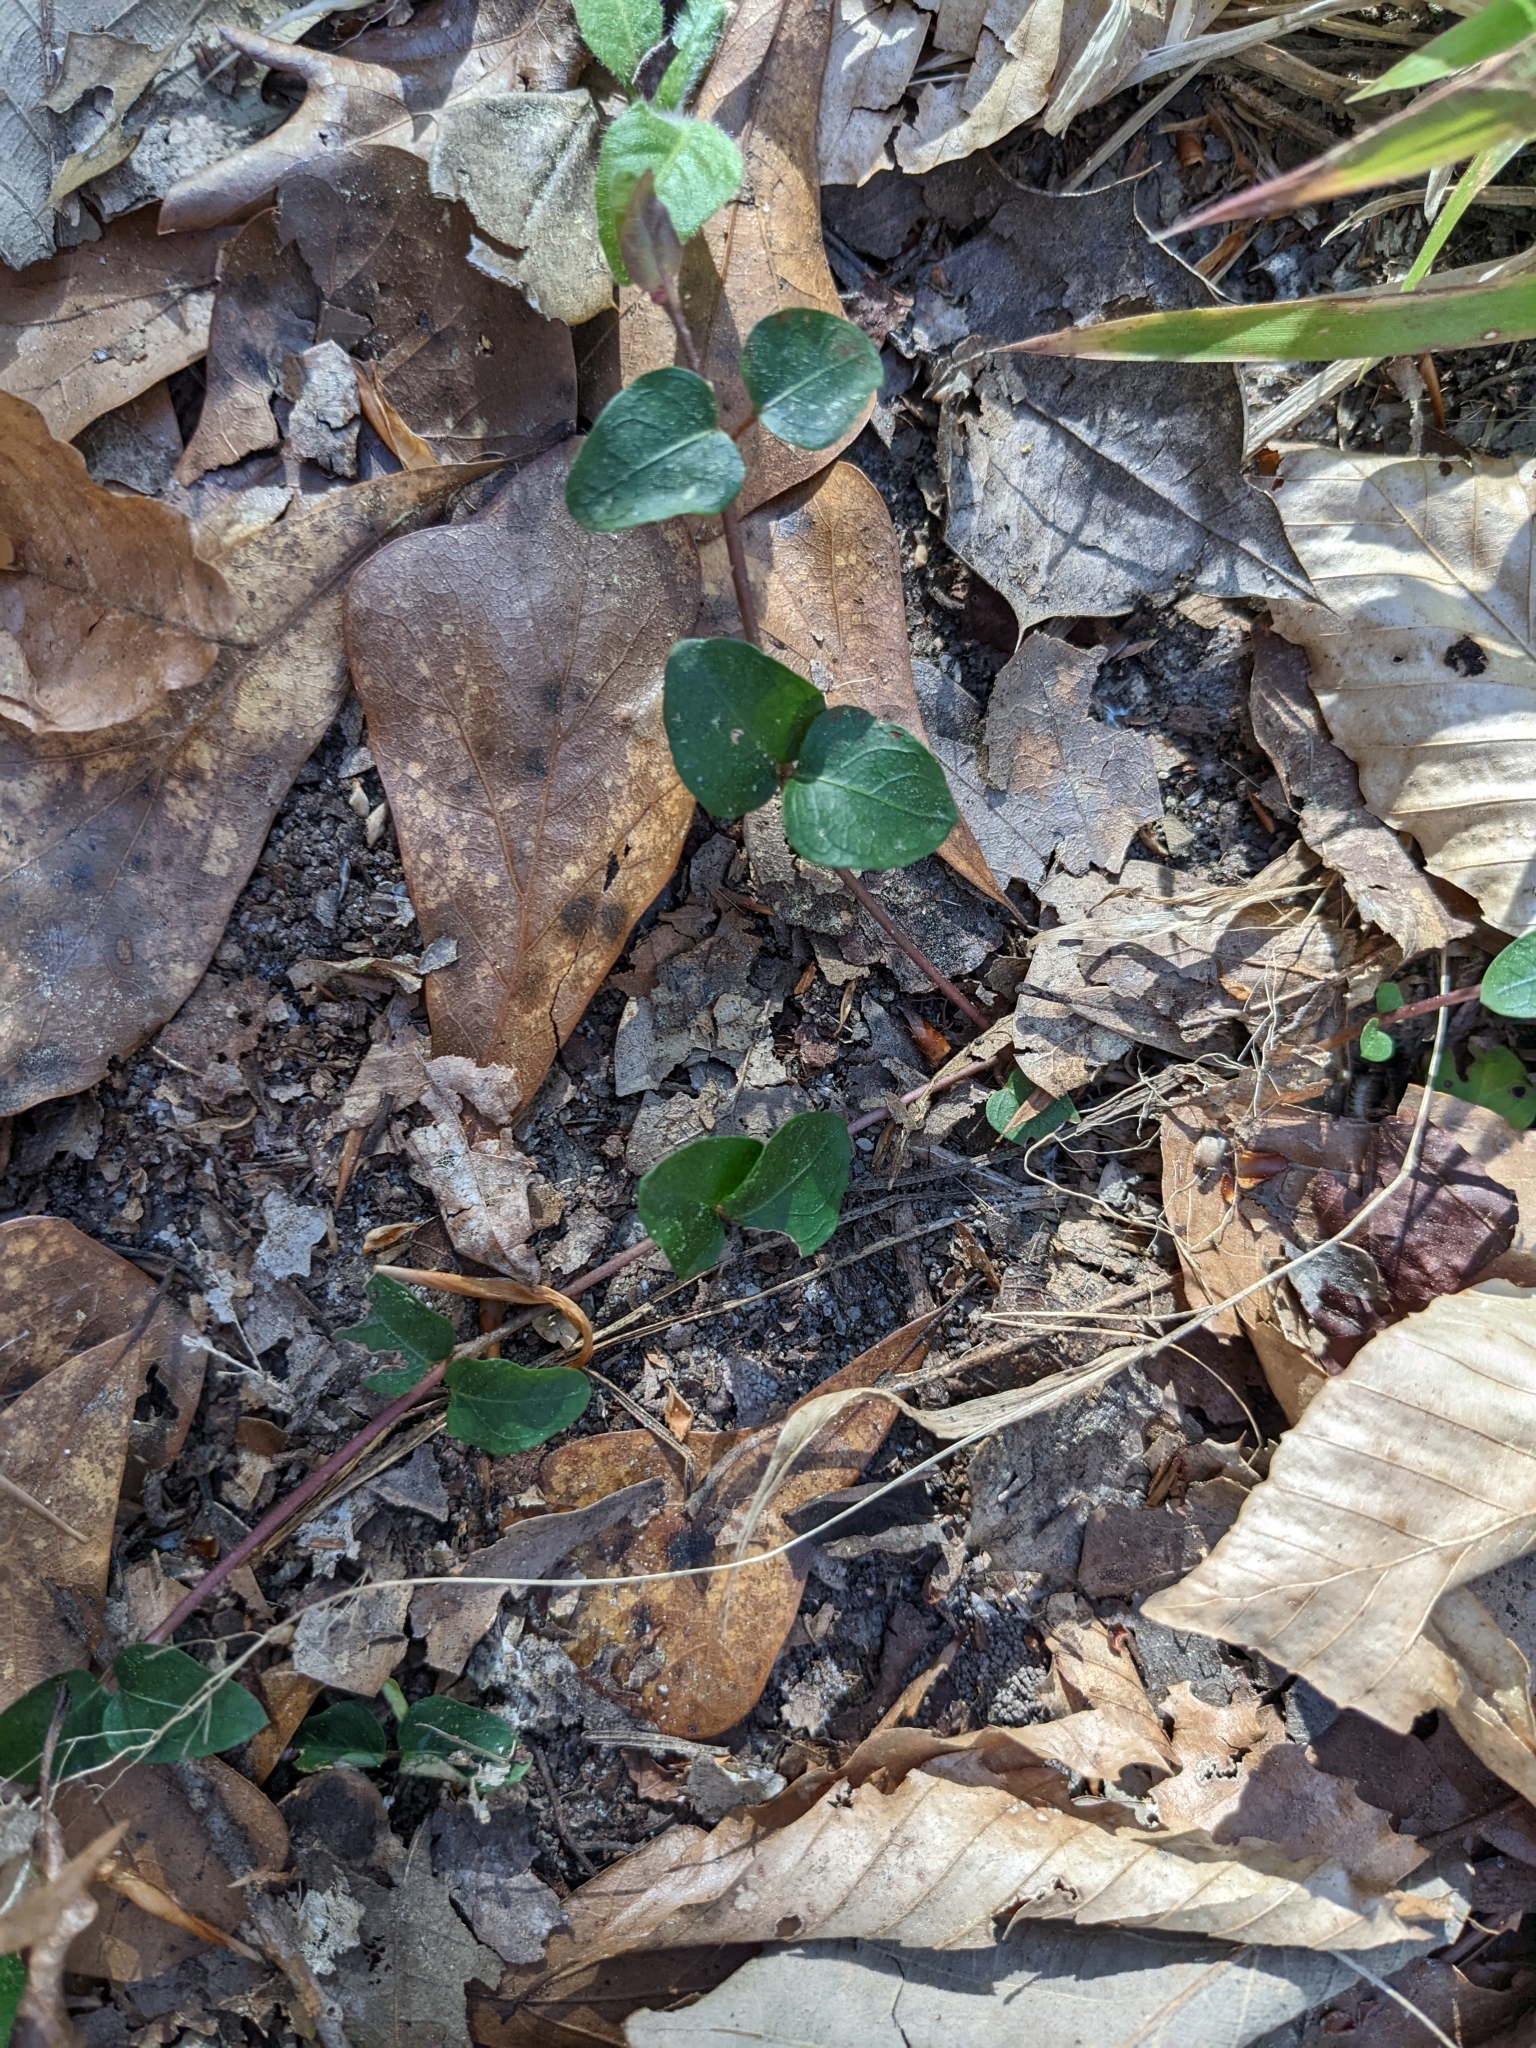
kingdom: Plantae
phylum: Tracheophyta
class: Magnoliopsida
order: Gentianales
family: Rubiaceae
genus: Mitchella
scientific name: Mitchella repens
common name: Partridge-berry
